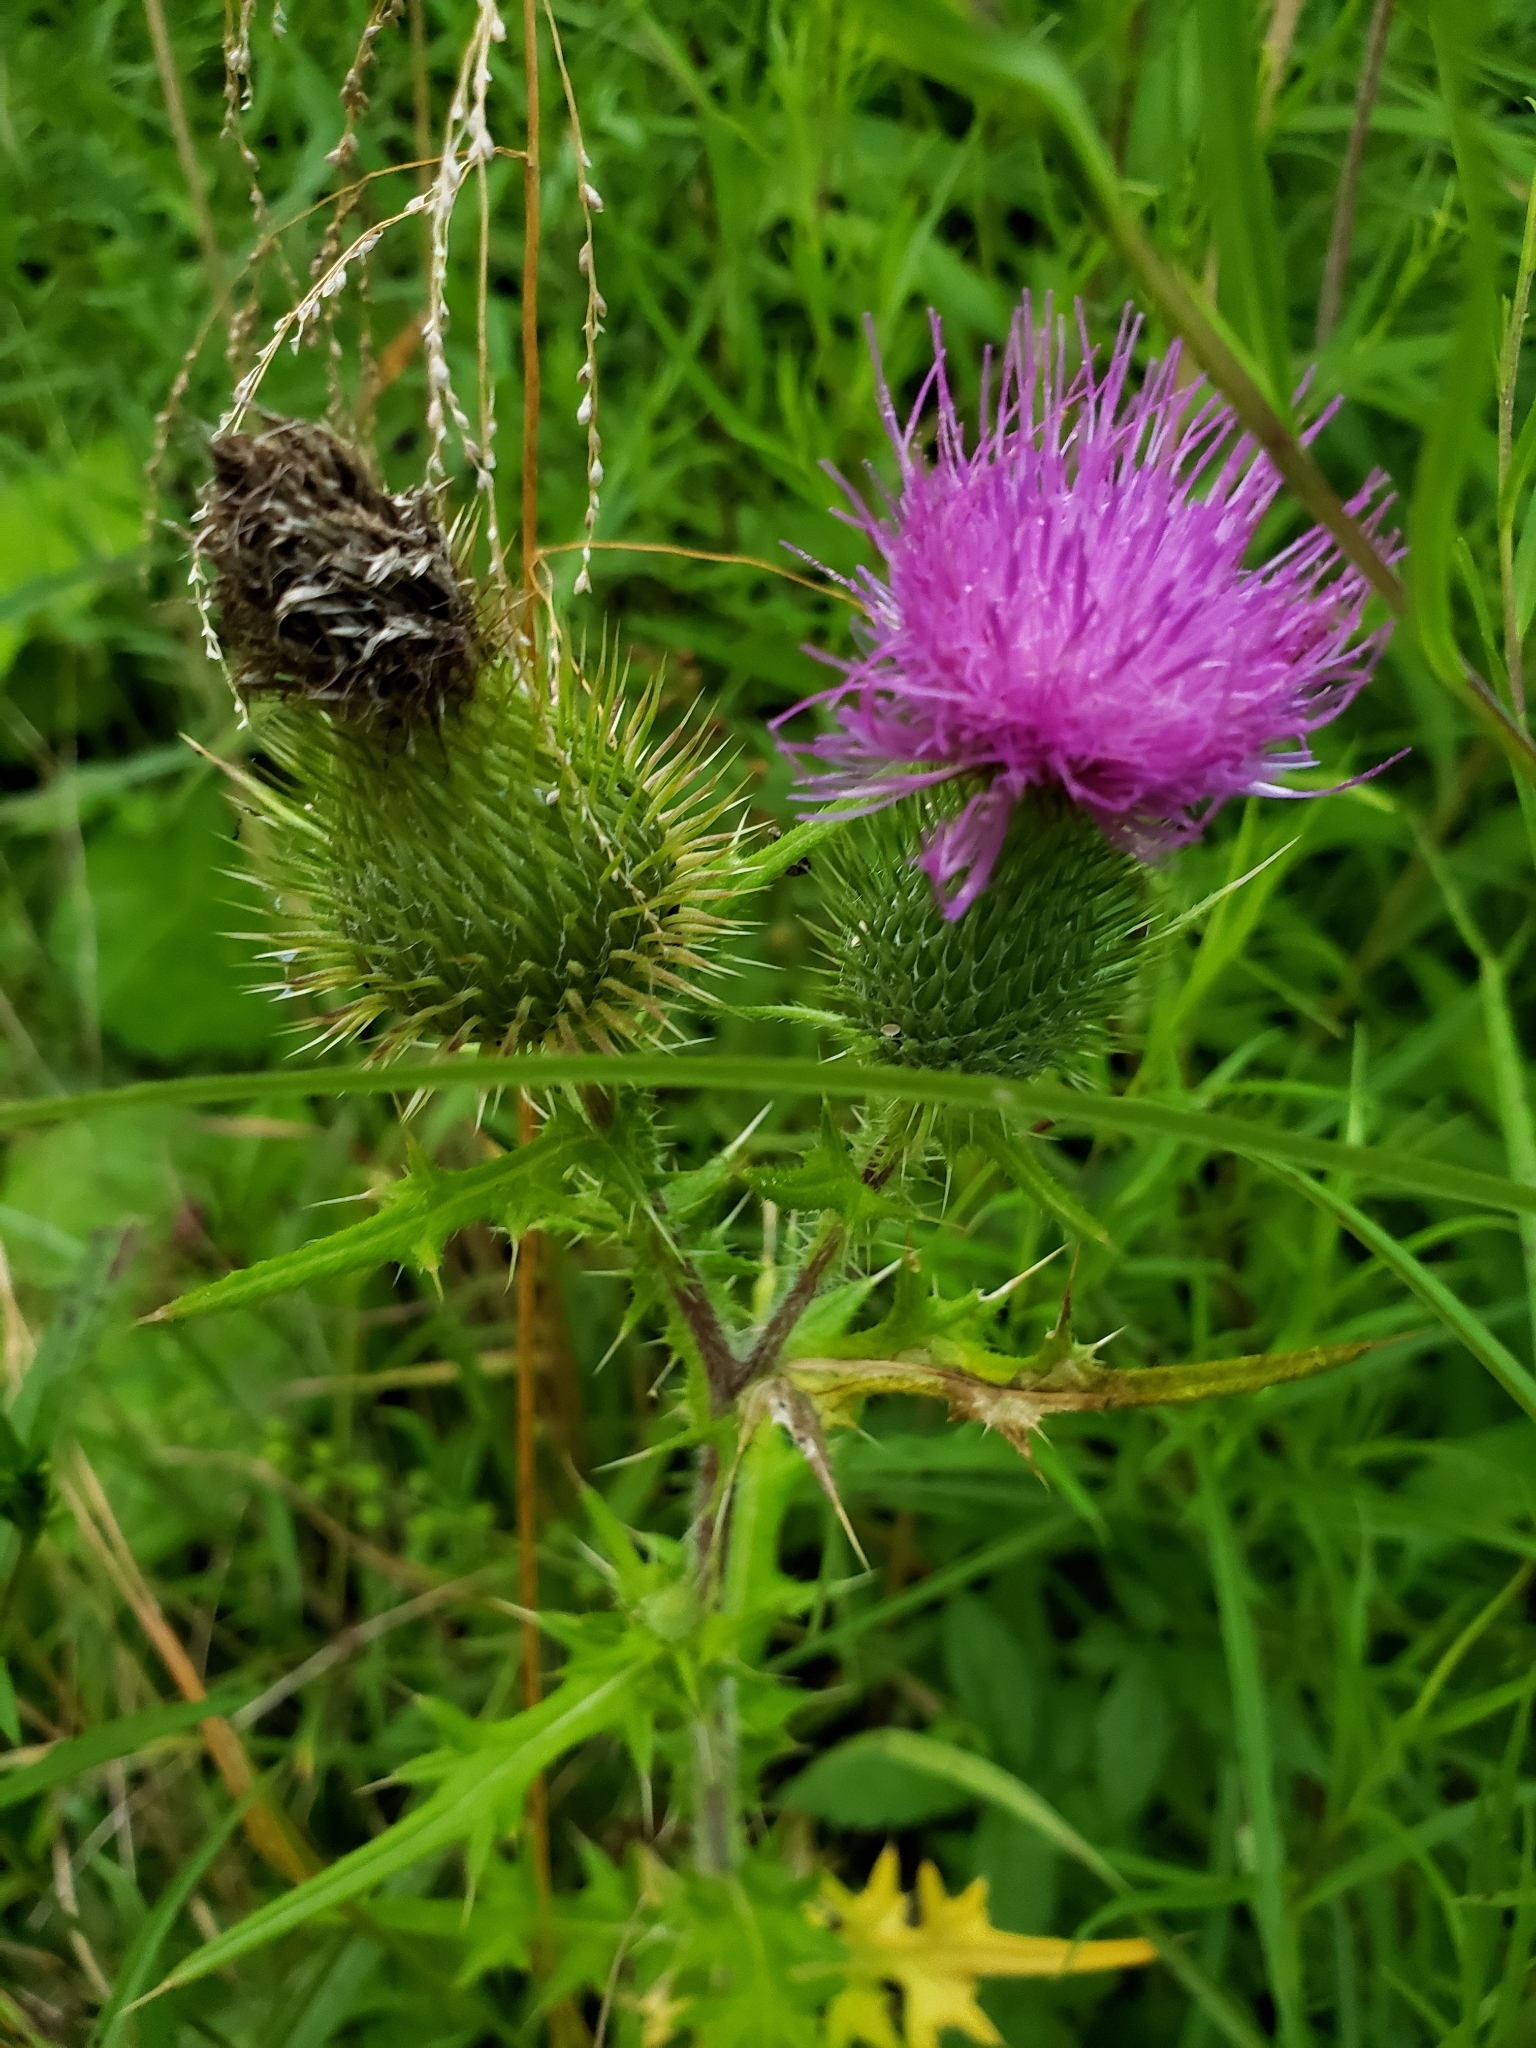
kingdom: Plantae
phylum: Tracheophyta
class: Magnoliopsida
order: Asterales
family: Asteraceae
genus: Cirsium
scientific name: Cirsium vulgare
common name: Bull thistle
